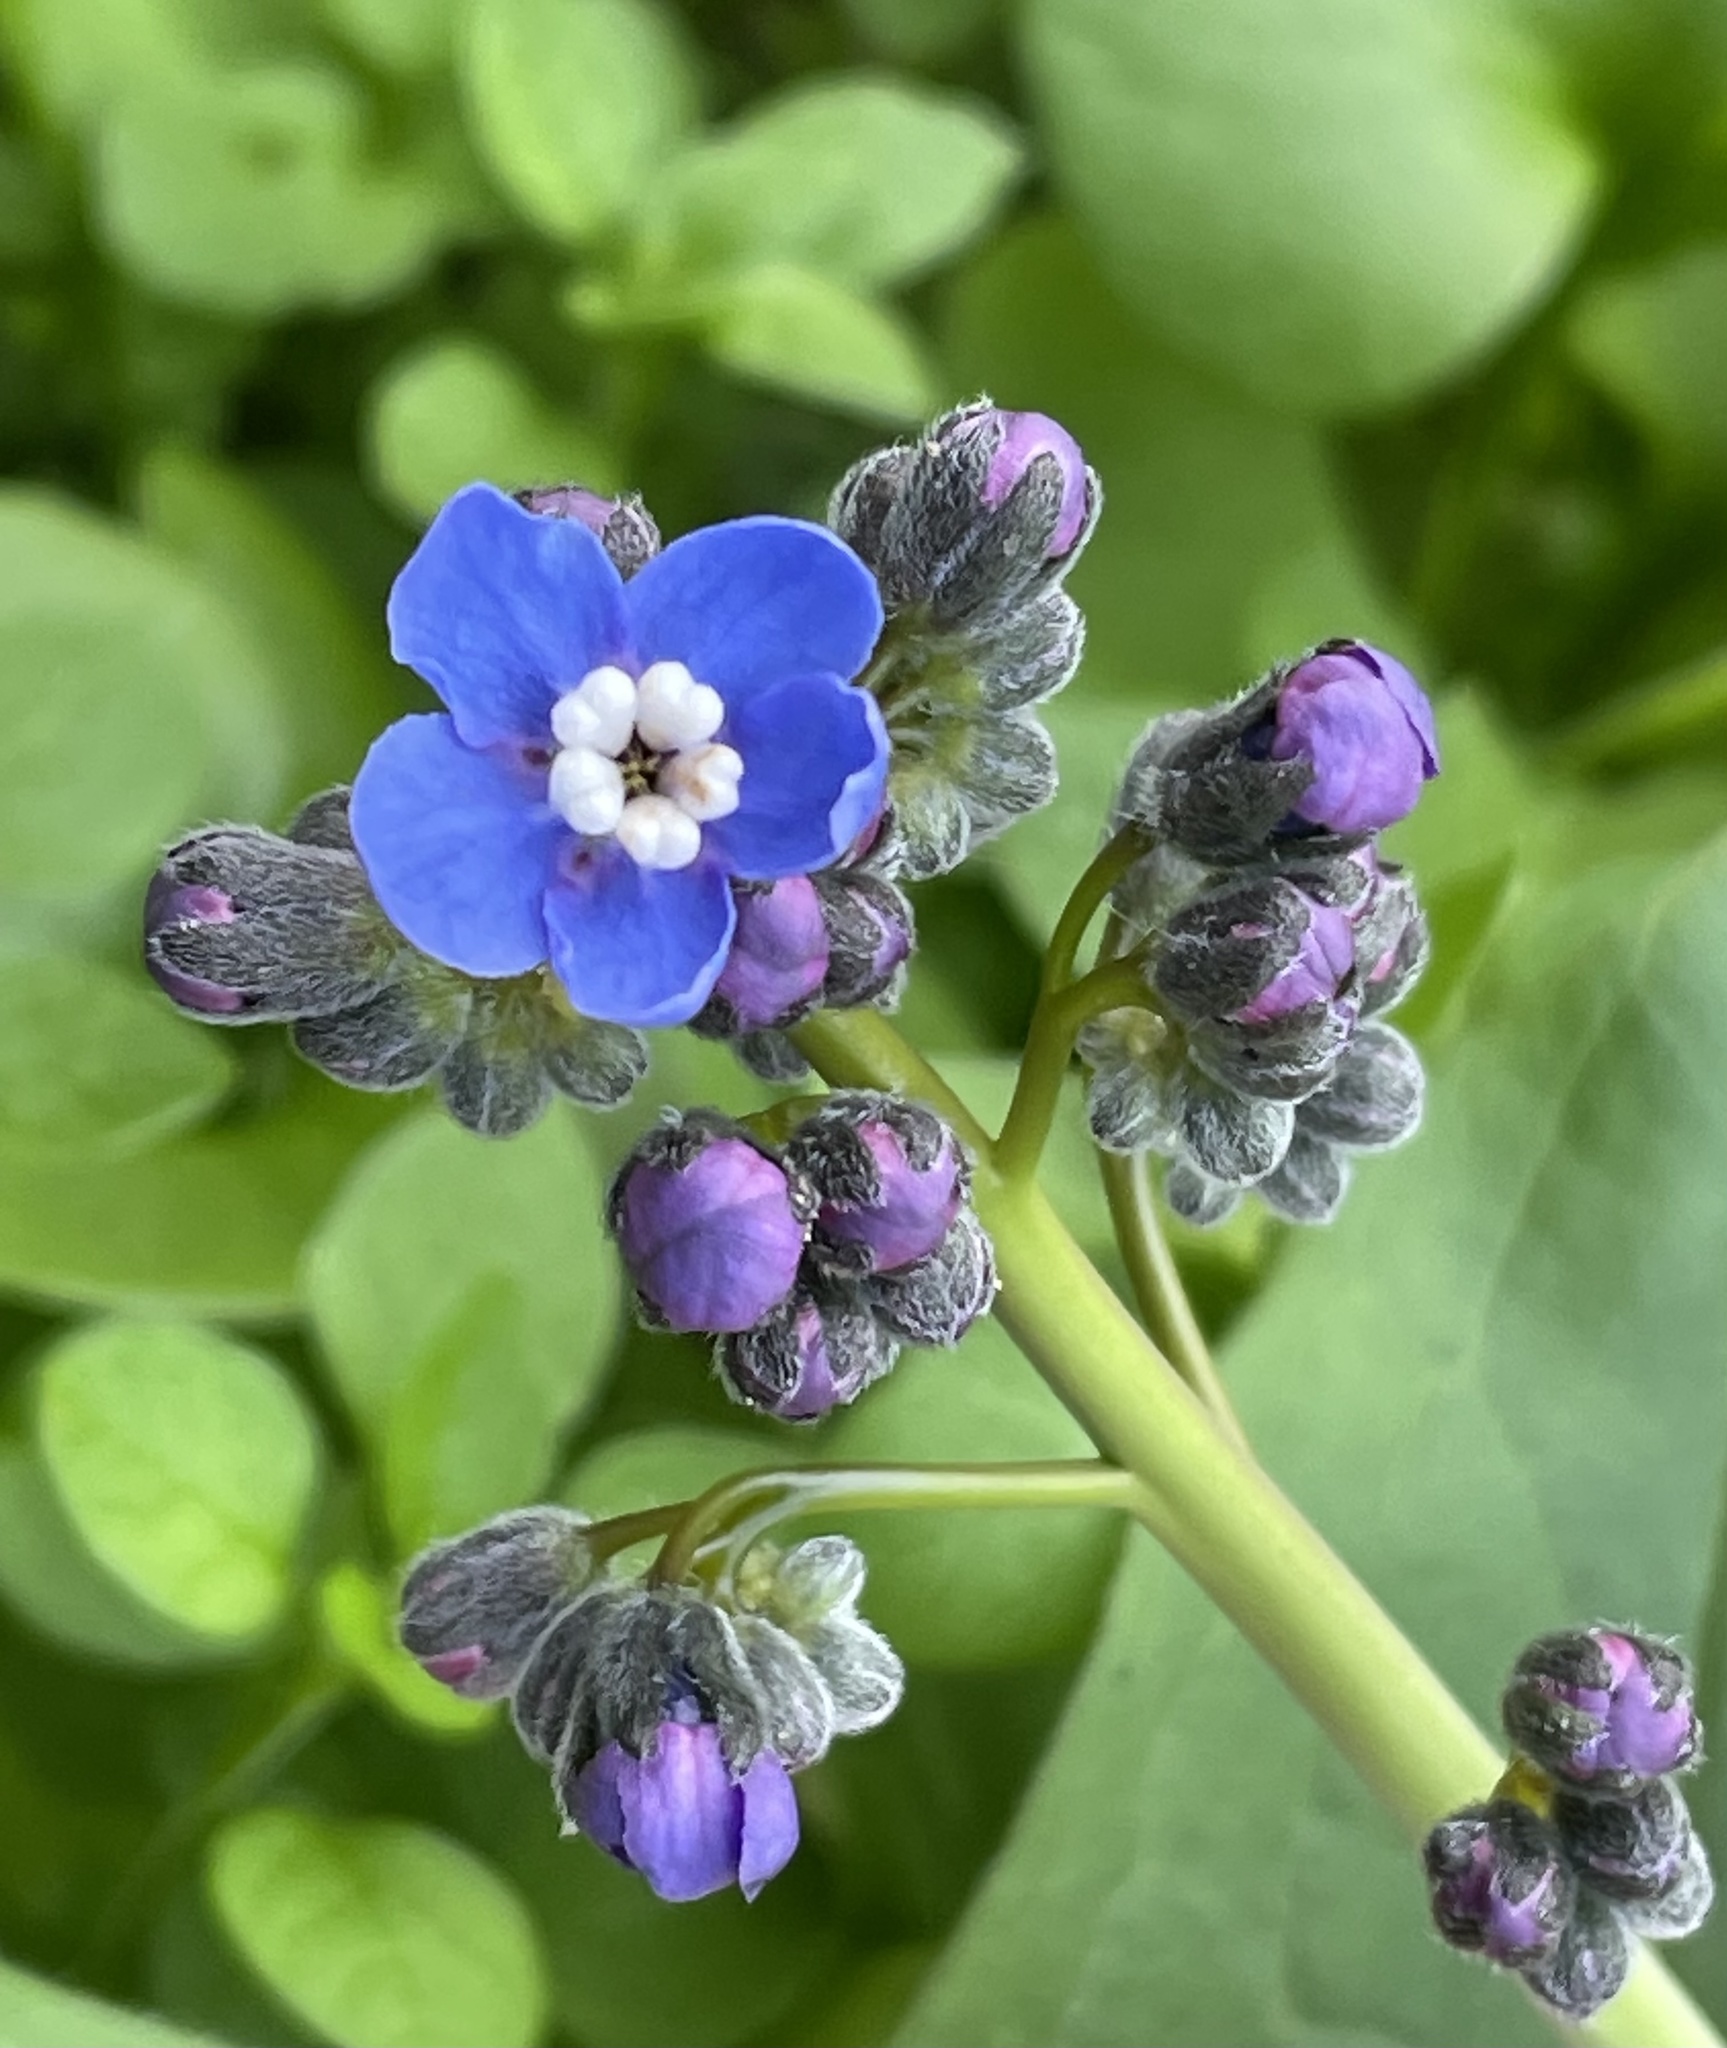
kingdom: Plantae
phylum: Tracheophyta
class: Magnoliopsida
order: Boraginales
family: Boraginaceae
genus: Adelinia
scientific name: Adelinia grande
